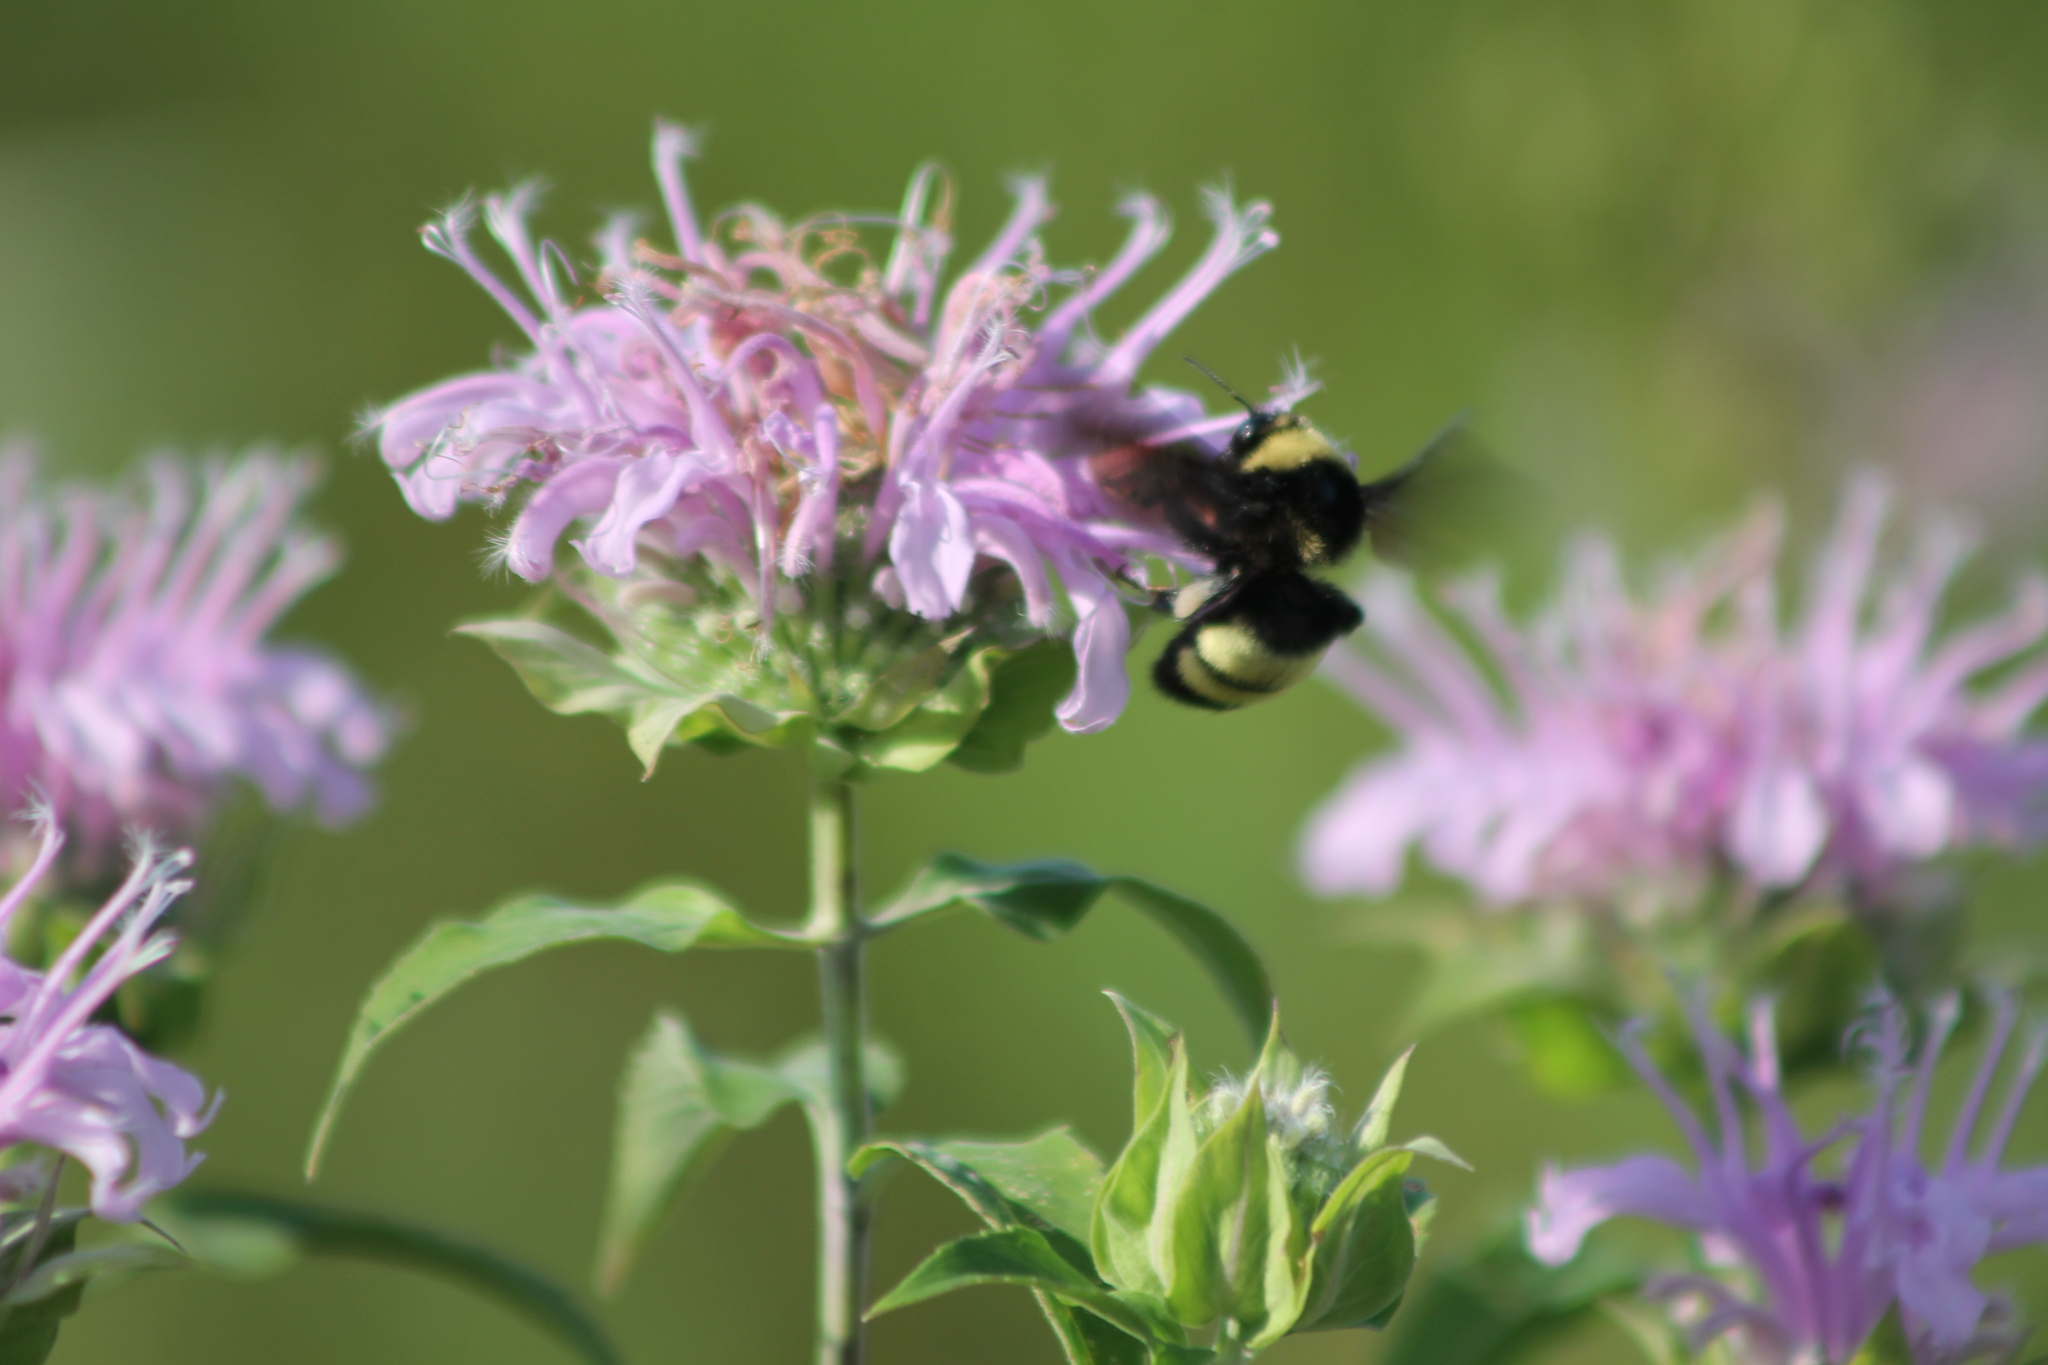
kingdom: Animalia
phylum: Arthropoda
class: Insecta
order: Hymenoptera
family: Apidae
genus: Bombus
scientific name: Bombus auricomus
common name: Black and gold bumble bee
